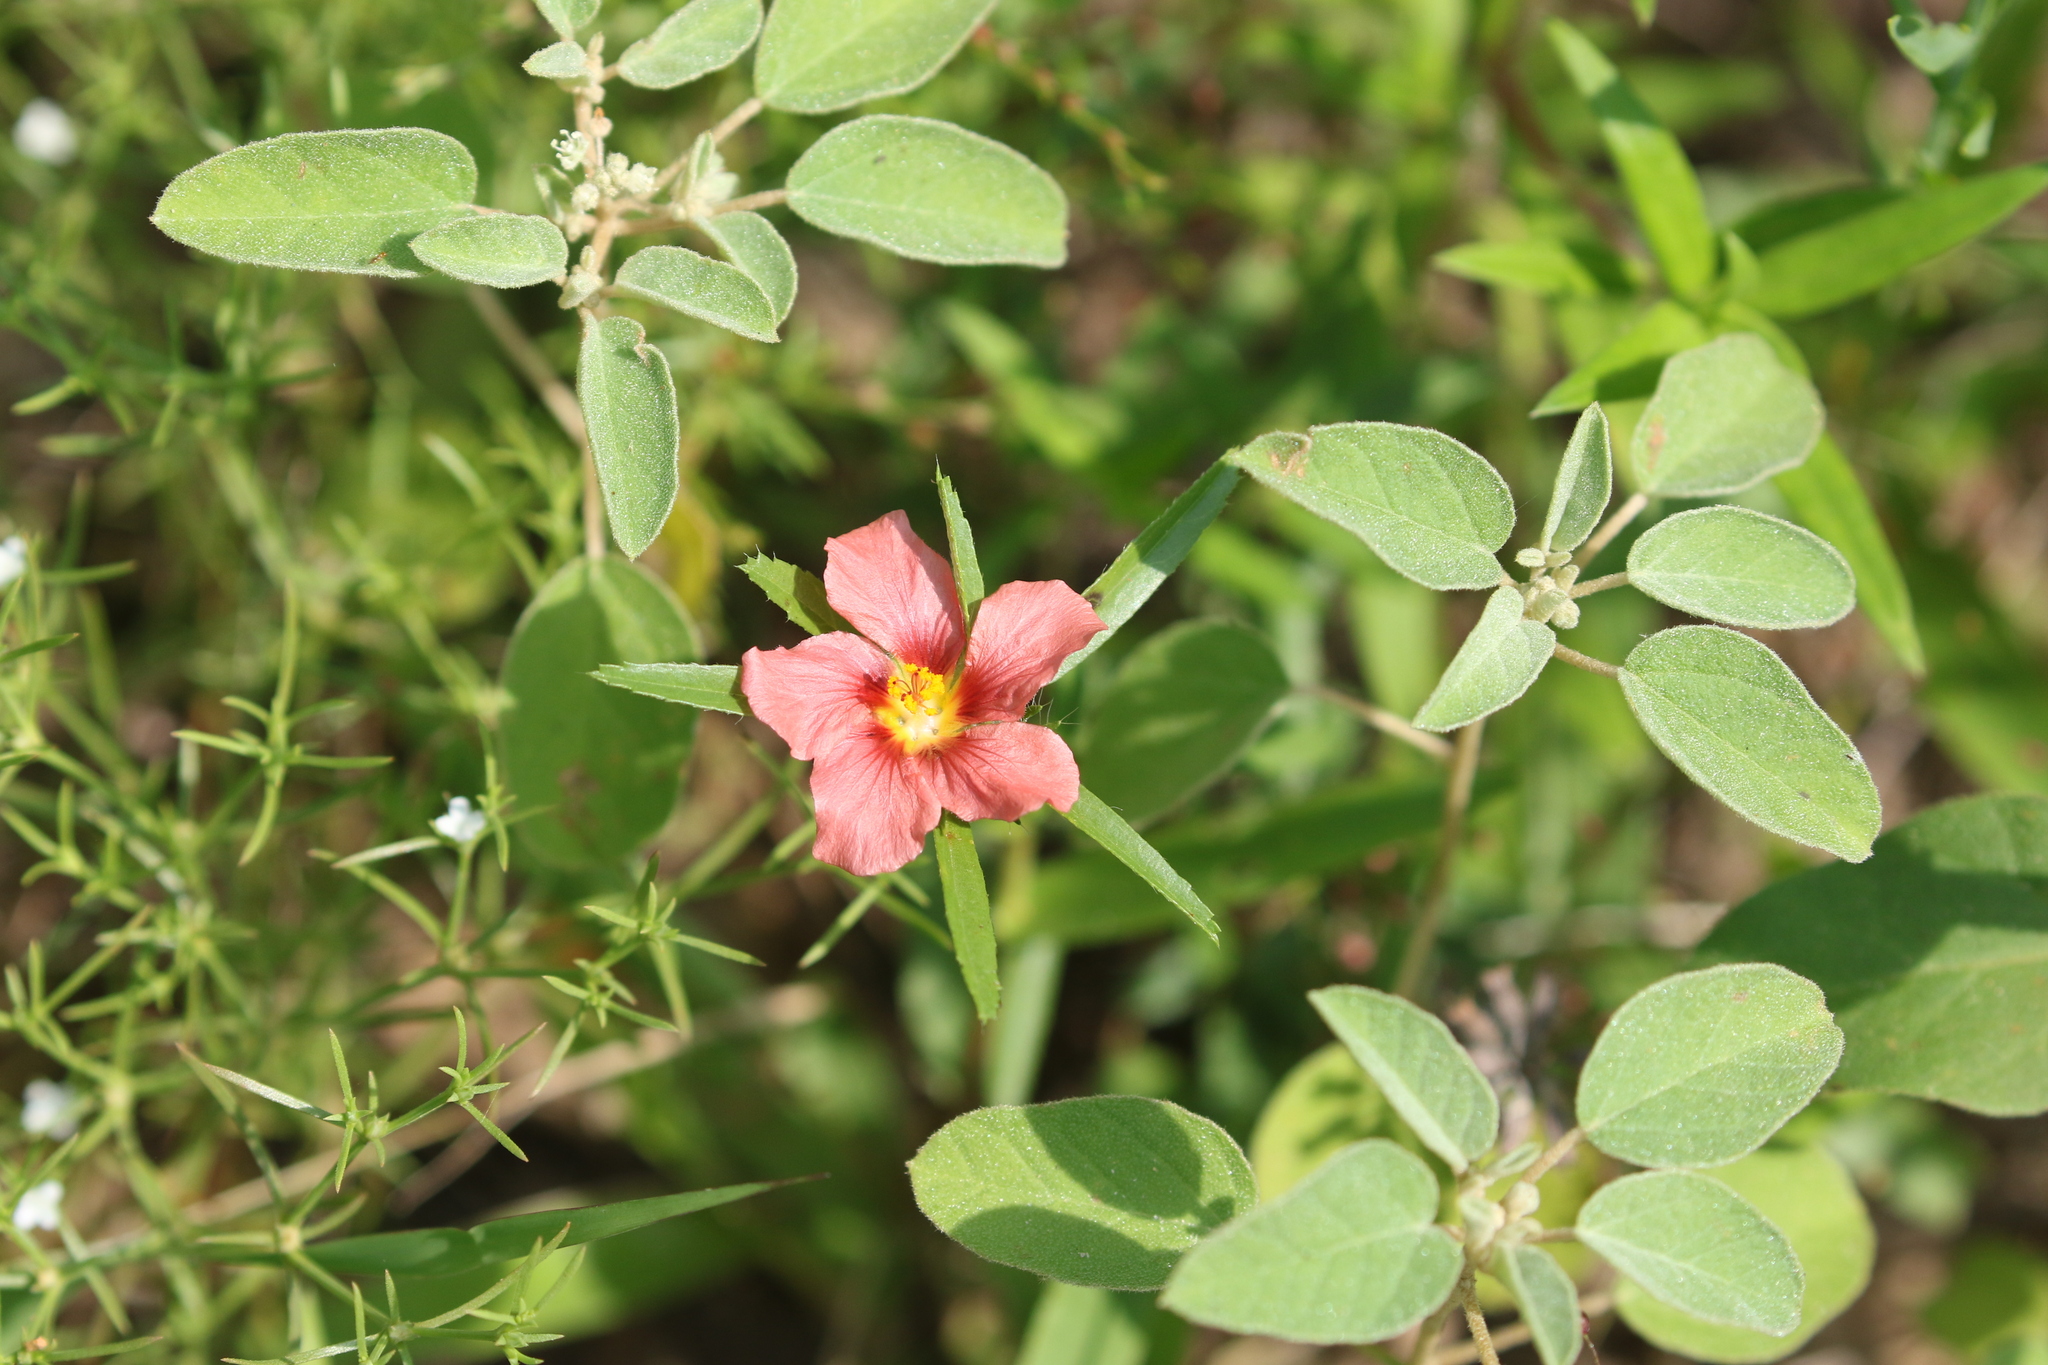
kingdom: Plantae
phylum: Tracheophyta
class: Magnoliopsida
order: Malvales
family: Malvaceae
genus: Sida
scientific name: Sida ciliaris
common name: Bracted fanpetals
